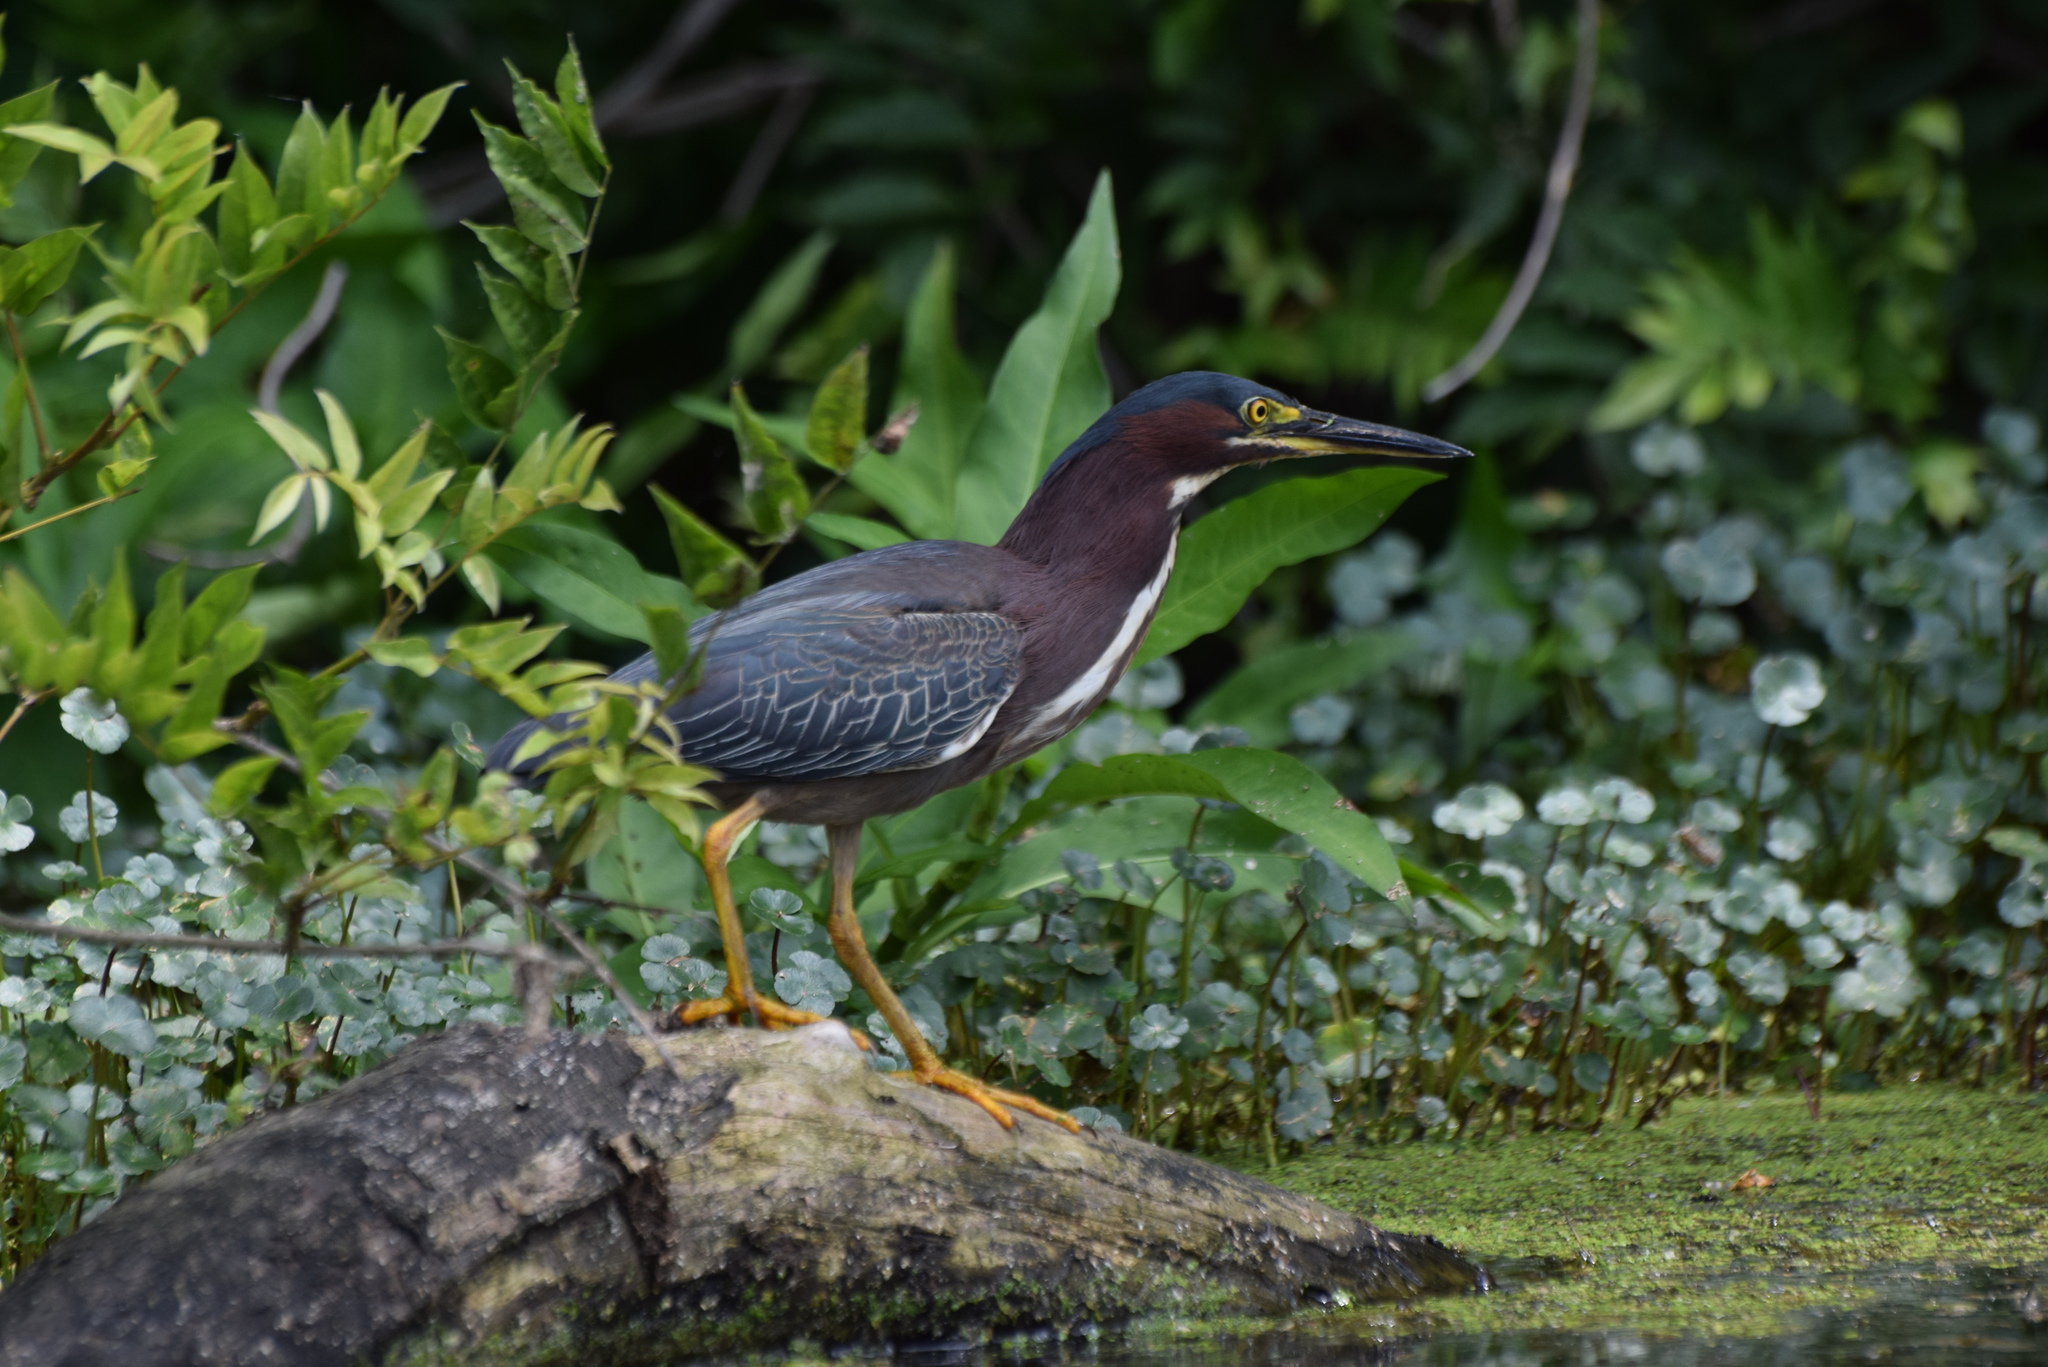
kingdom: Animalia
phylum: Chordata
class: Aves
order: Pelecaniformes
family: Ardeidae
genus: Butorides
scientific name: Butorides virescens
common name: Green heron
